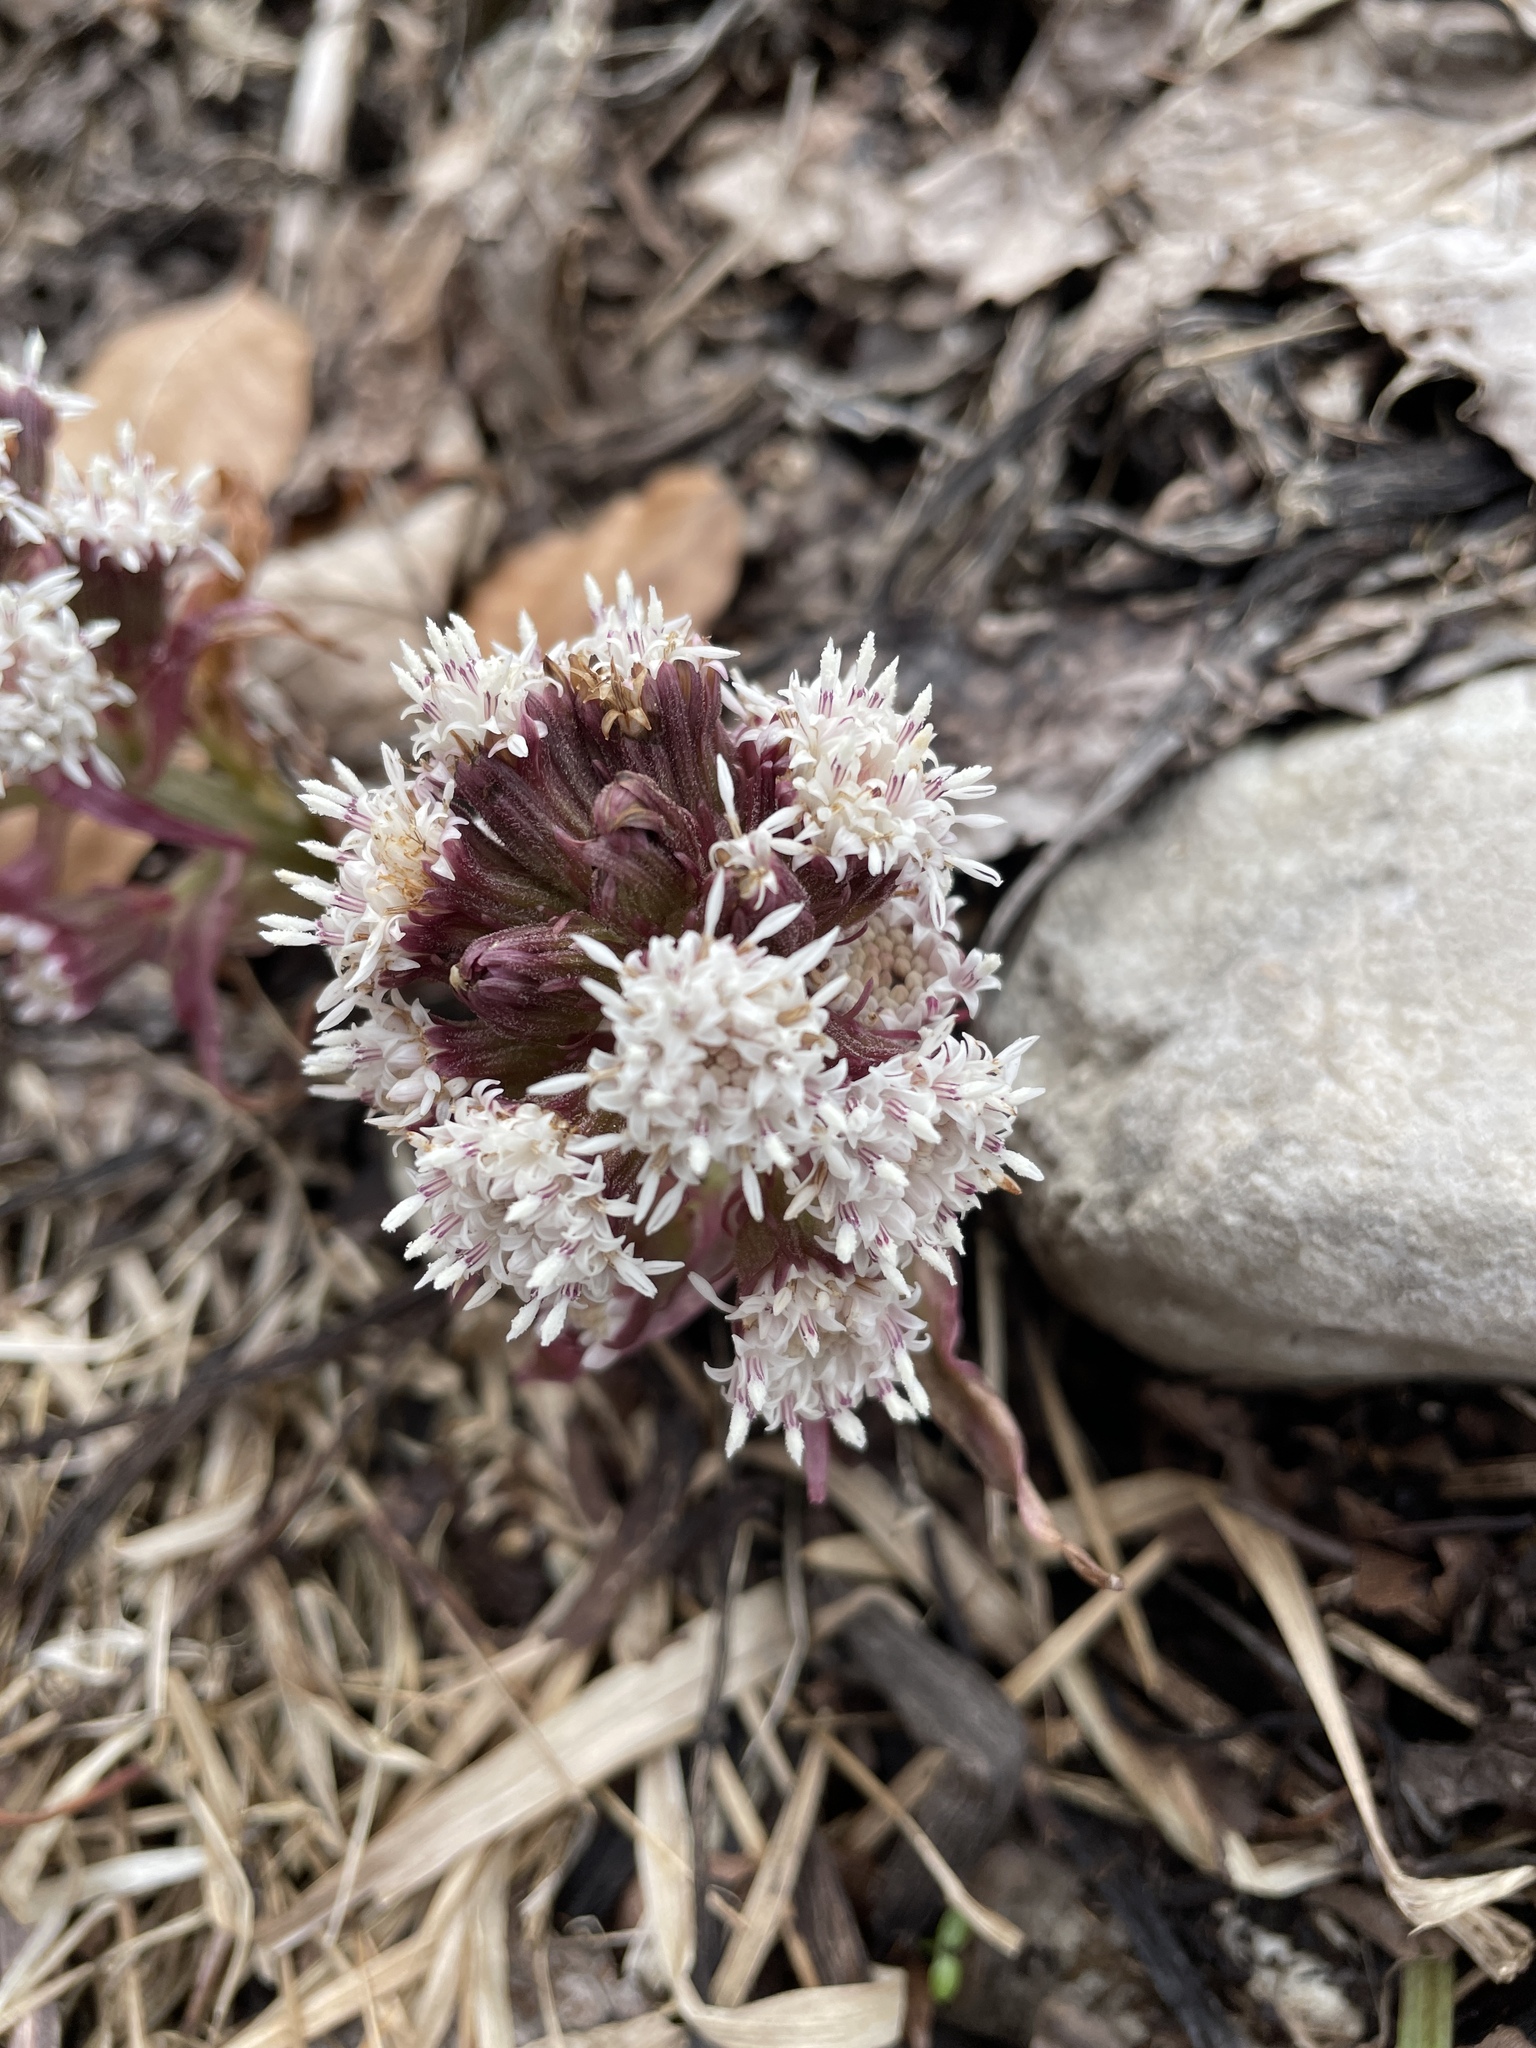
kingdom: Plantae
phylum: Tracheophyta
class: Magnoliopsida
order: Asterales
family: Asteraceae
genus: Petasites
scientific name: Petasites paradoxus
